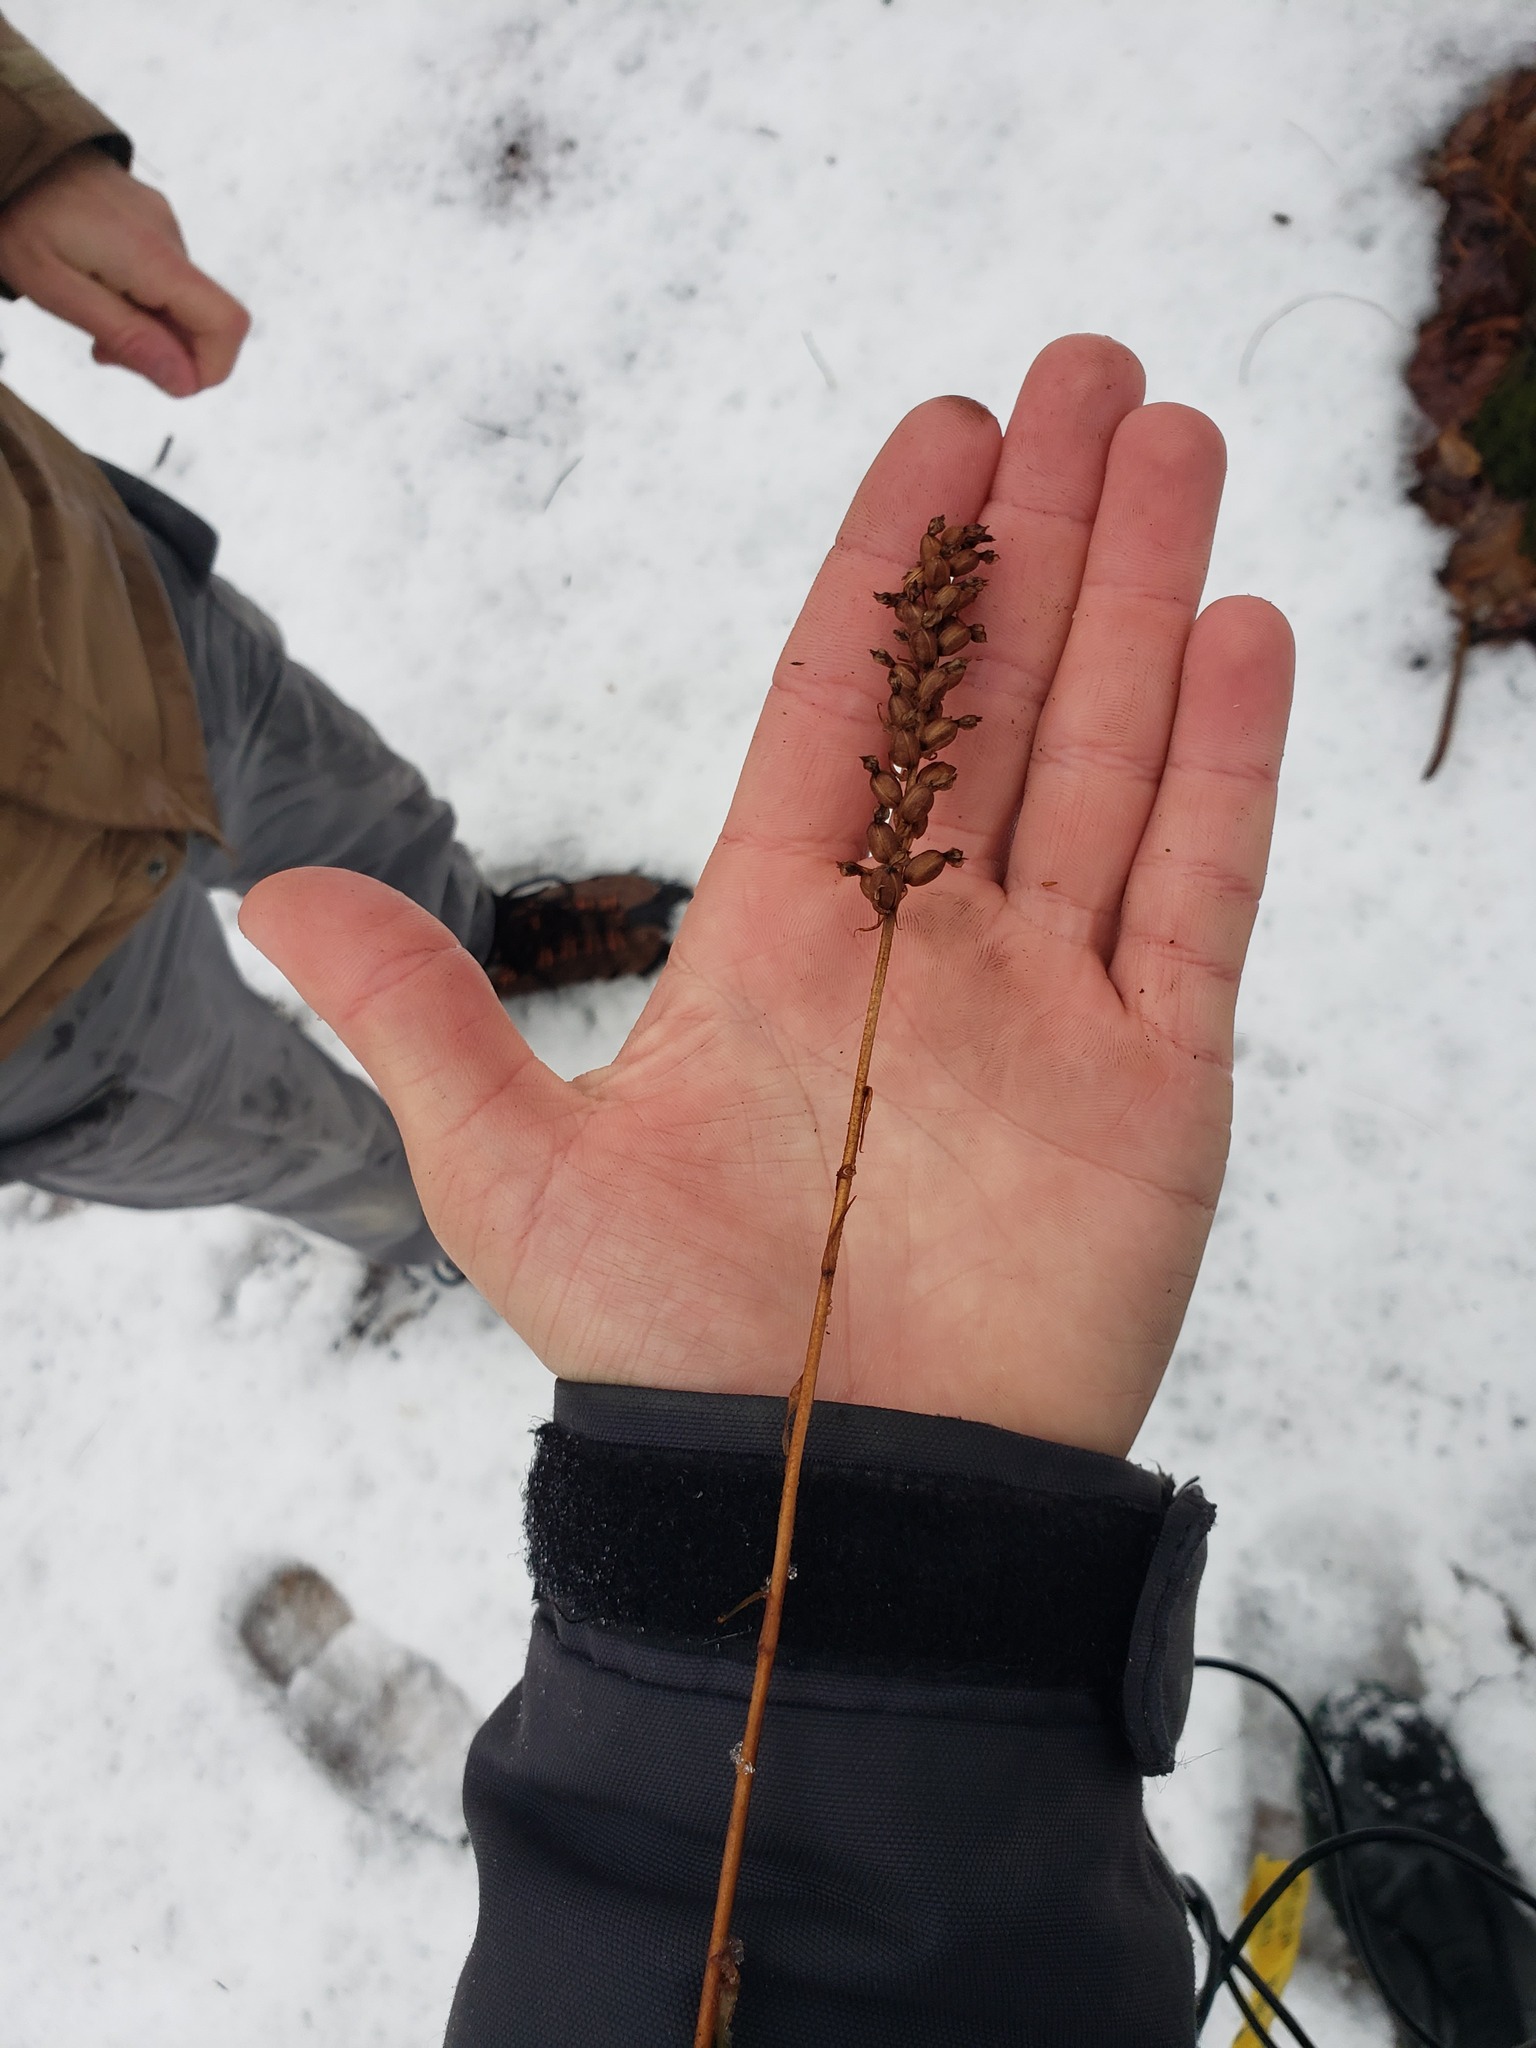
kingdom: Plantae
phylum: Tracheophyta
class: Liliopsida
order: Asparagales
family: Orchidaceae
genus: Goodyera
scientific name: Goodyera pubescens
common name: Downy rattlesnake-plantain
